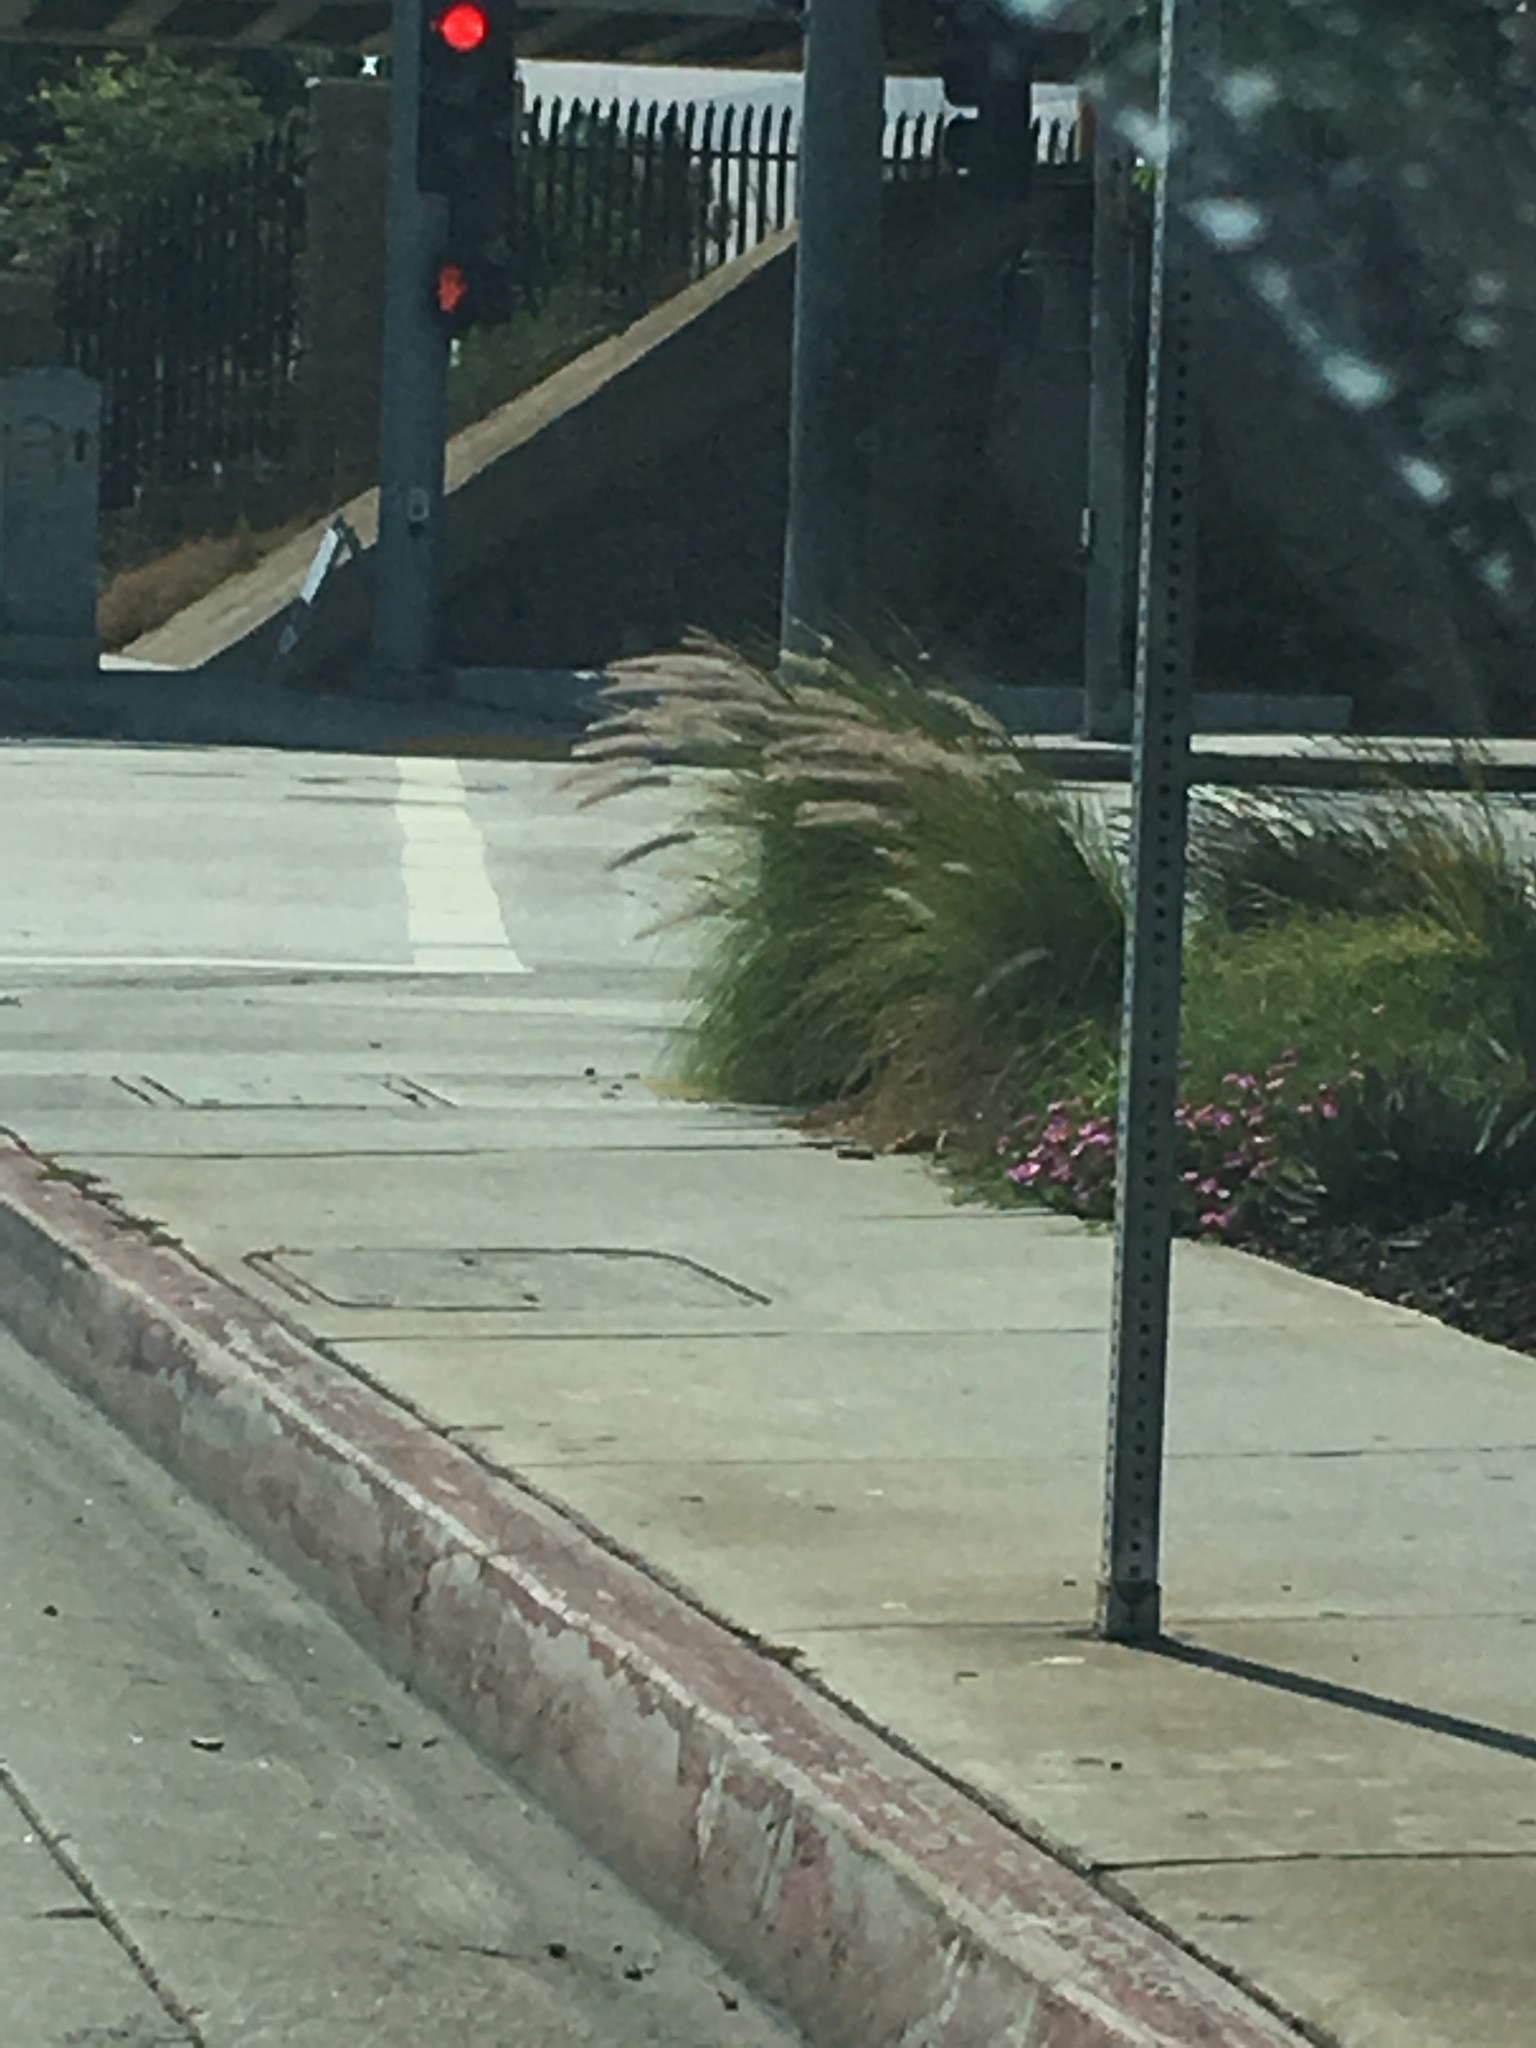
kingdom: Plantae
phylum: Tracheophyta
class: Liliopsida
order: Poales
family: Poaceae
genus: Cenchrus
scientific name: Cenchrus setaceus
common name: Crimson fountaingrass
